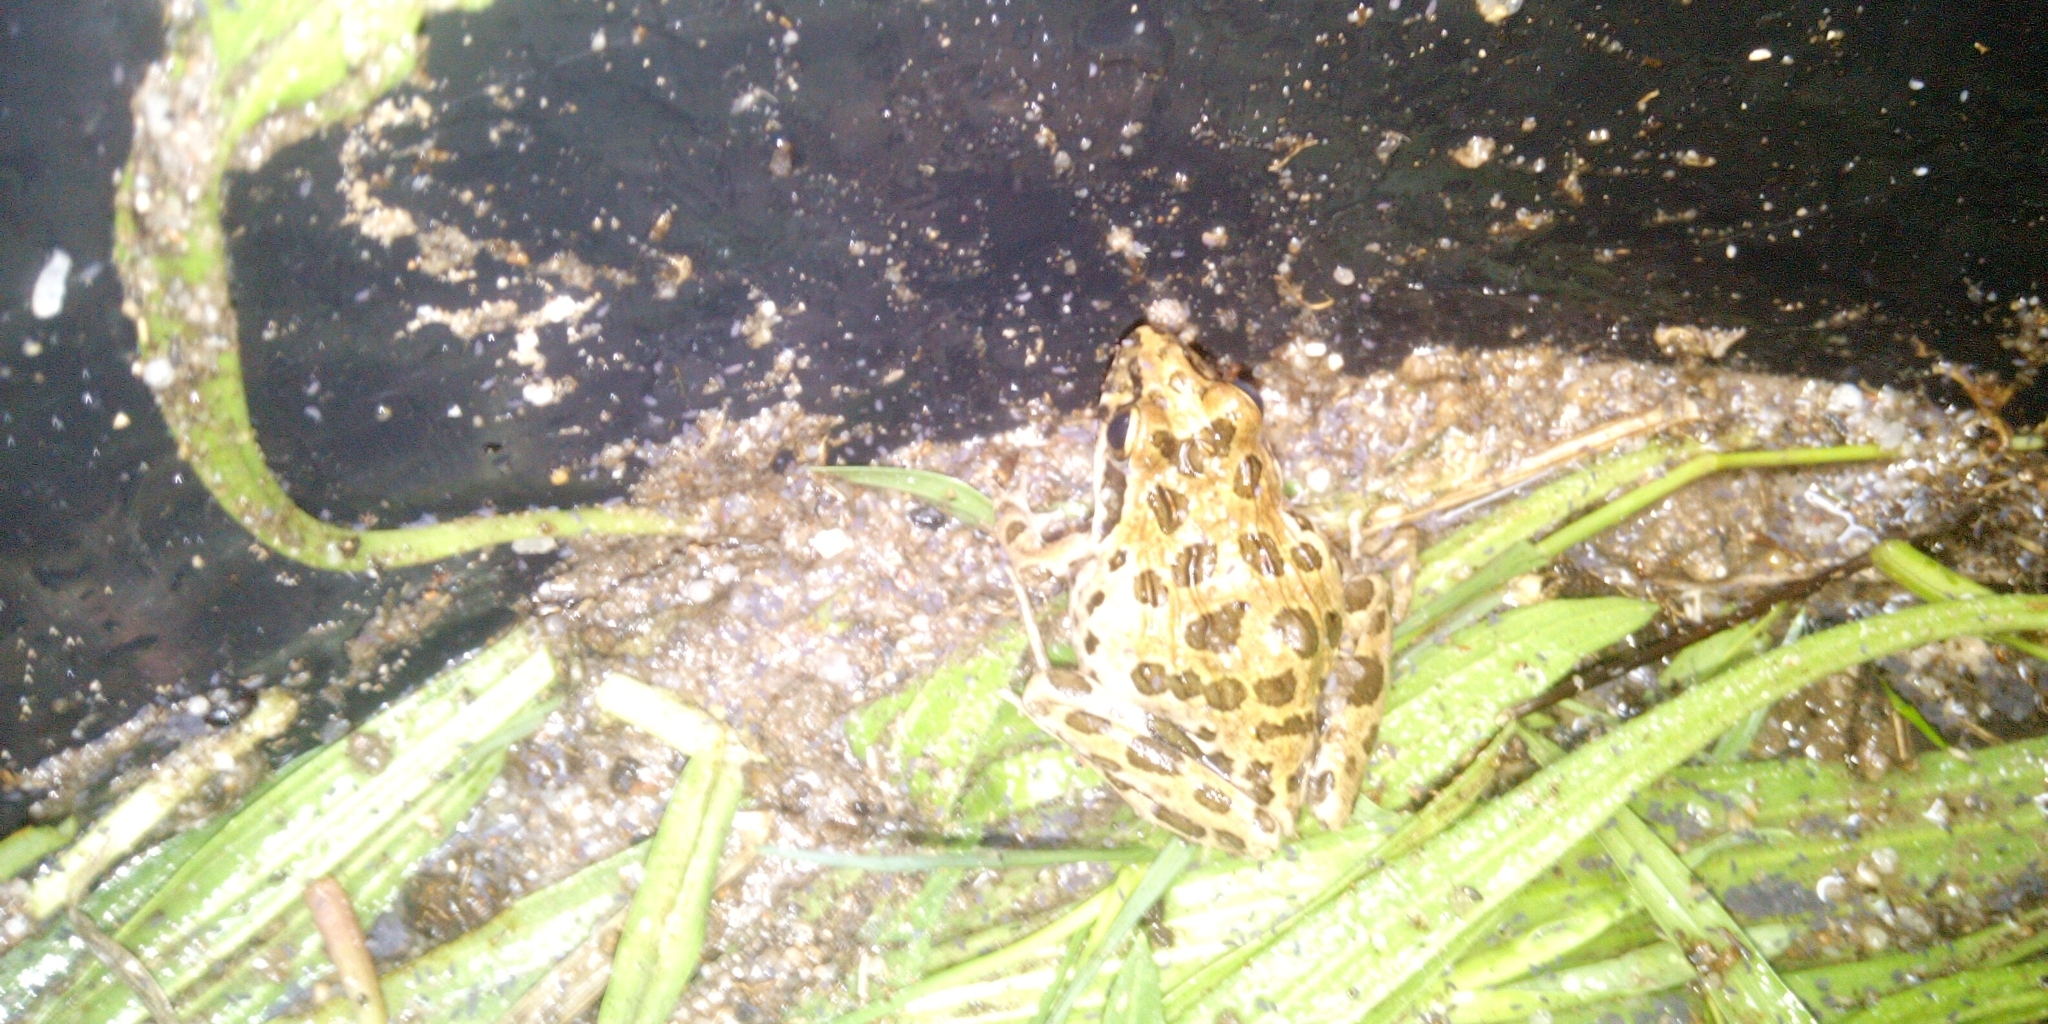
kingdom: Animalia
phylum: Chordata
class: Amphibia
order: Anura
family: Pyxicephalidae
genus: Strongylopus
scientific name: Strongylopus grayii
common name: Gray's stream frog
